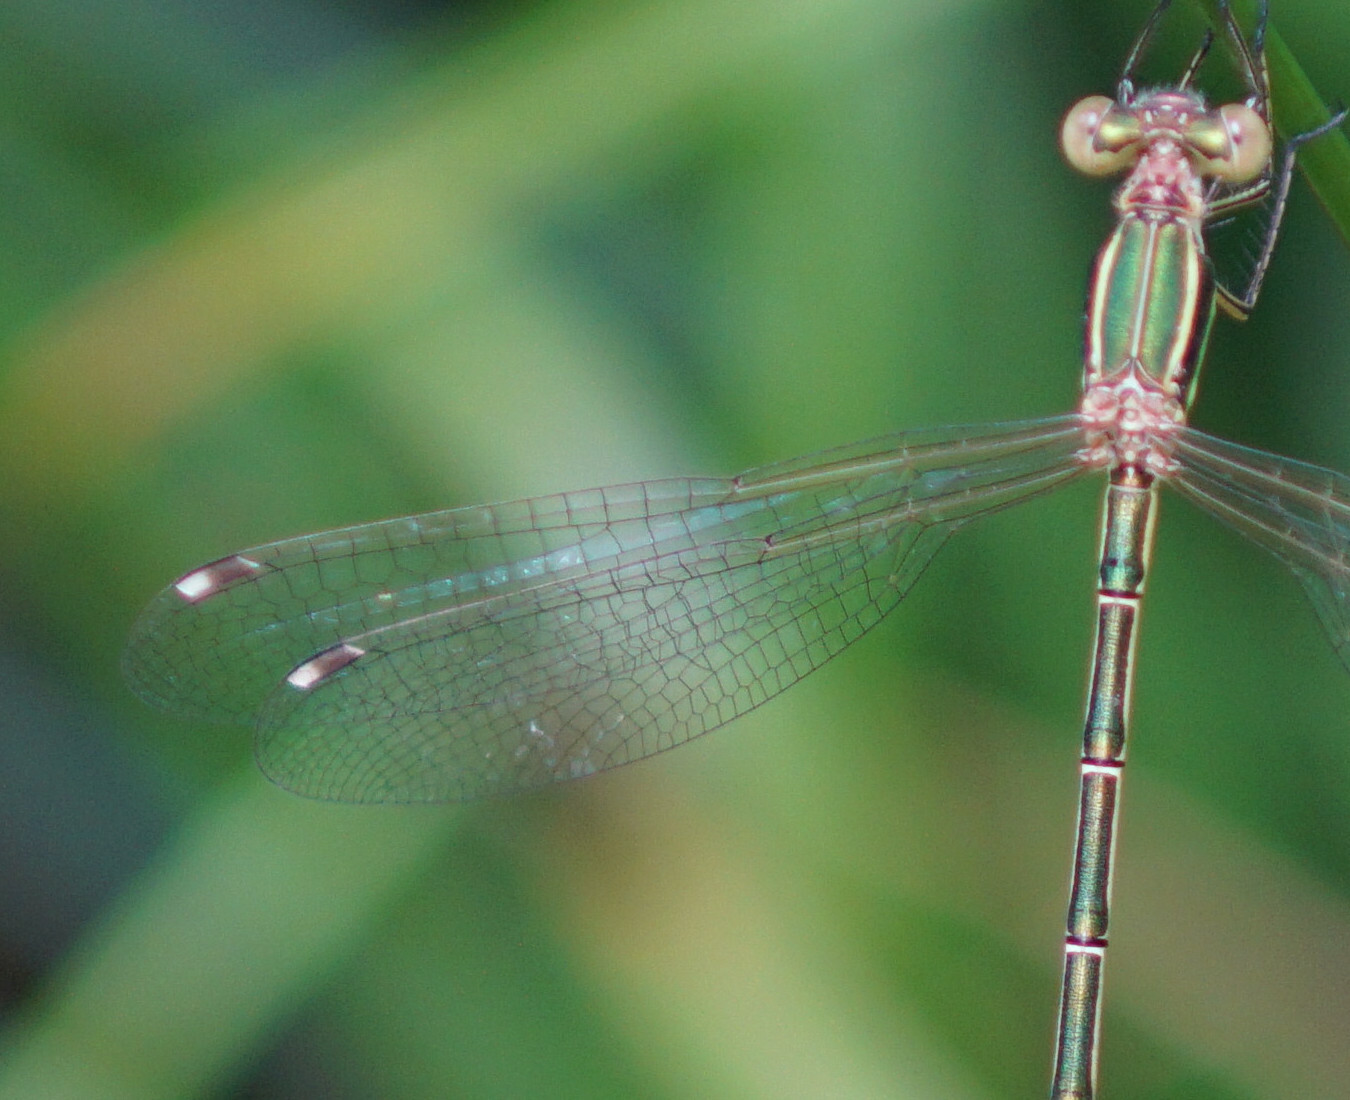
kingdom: Animalia
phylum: Arthropoda
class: Insecta
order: Odonata
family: Lestidae
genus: Lestes
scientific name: Lestes barbarus
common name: Migrant spreadwing
